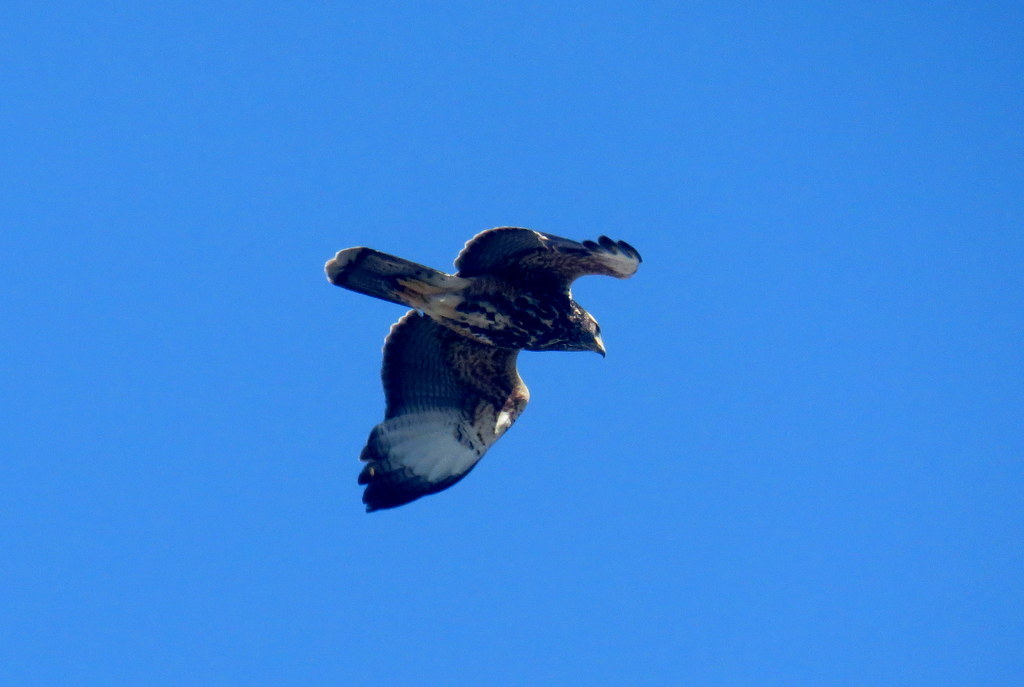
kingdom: Animalia
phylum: Chordata
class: Aves
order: Accipitriformes
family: Accipitridae
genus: Parabuteo
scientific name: Parabuteo unicinctus
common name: Harris's hawk
